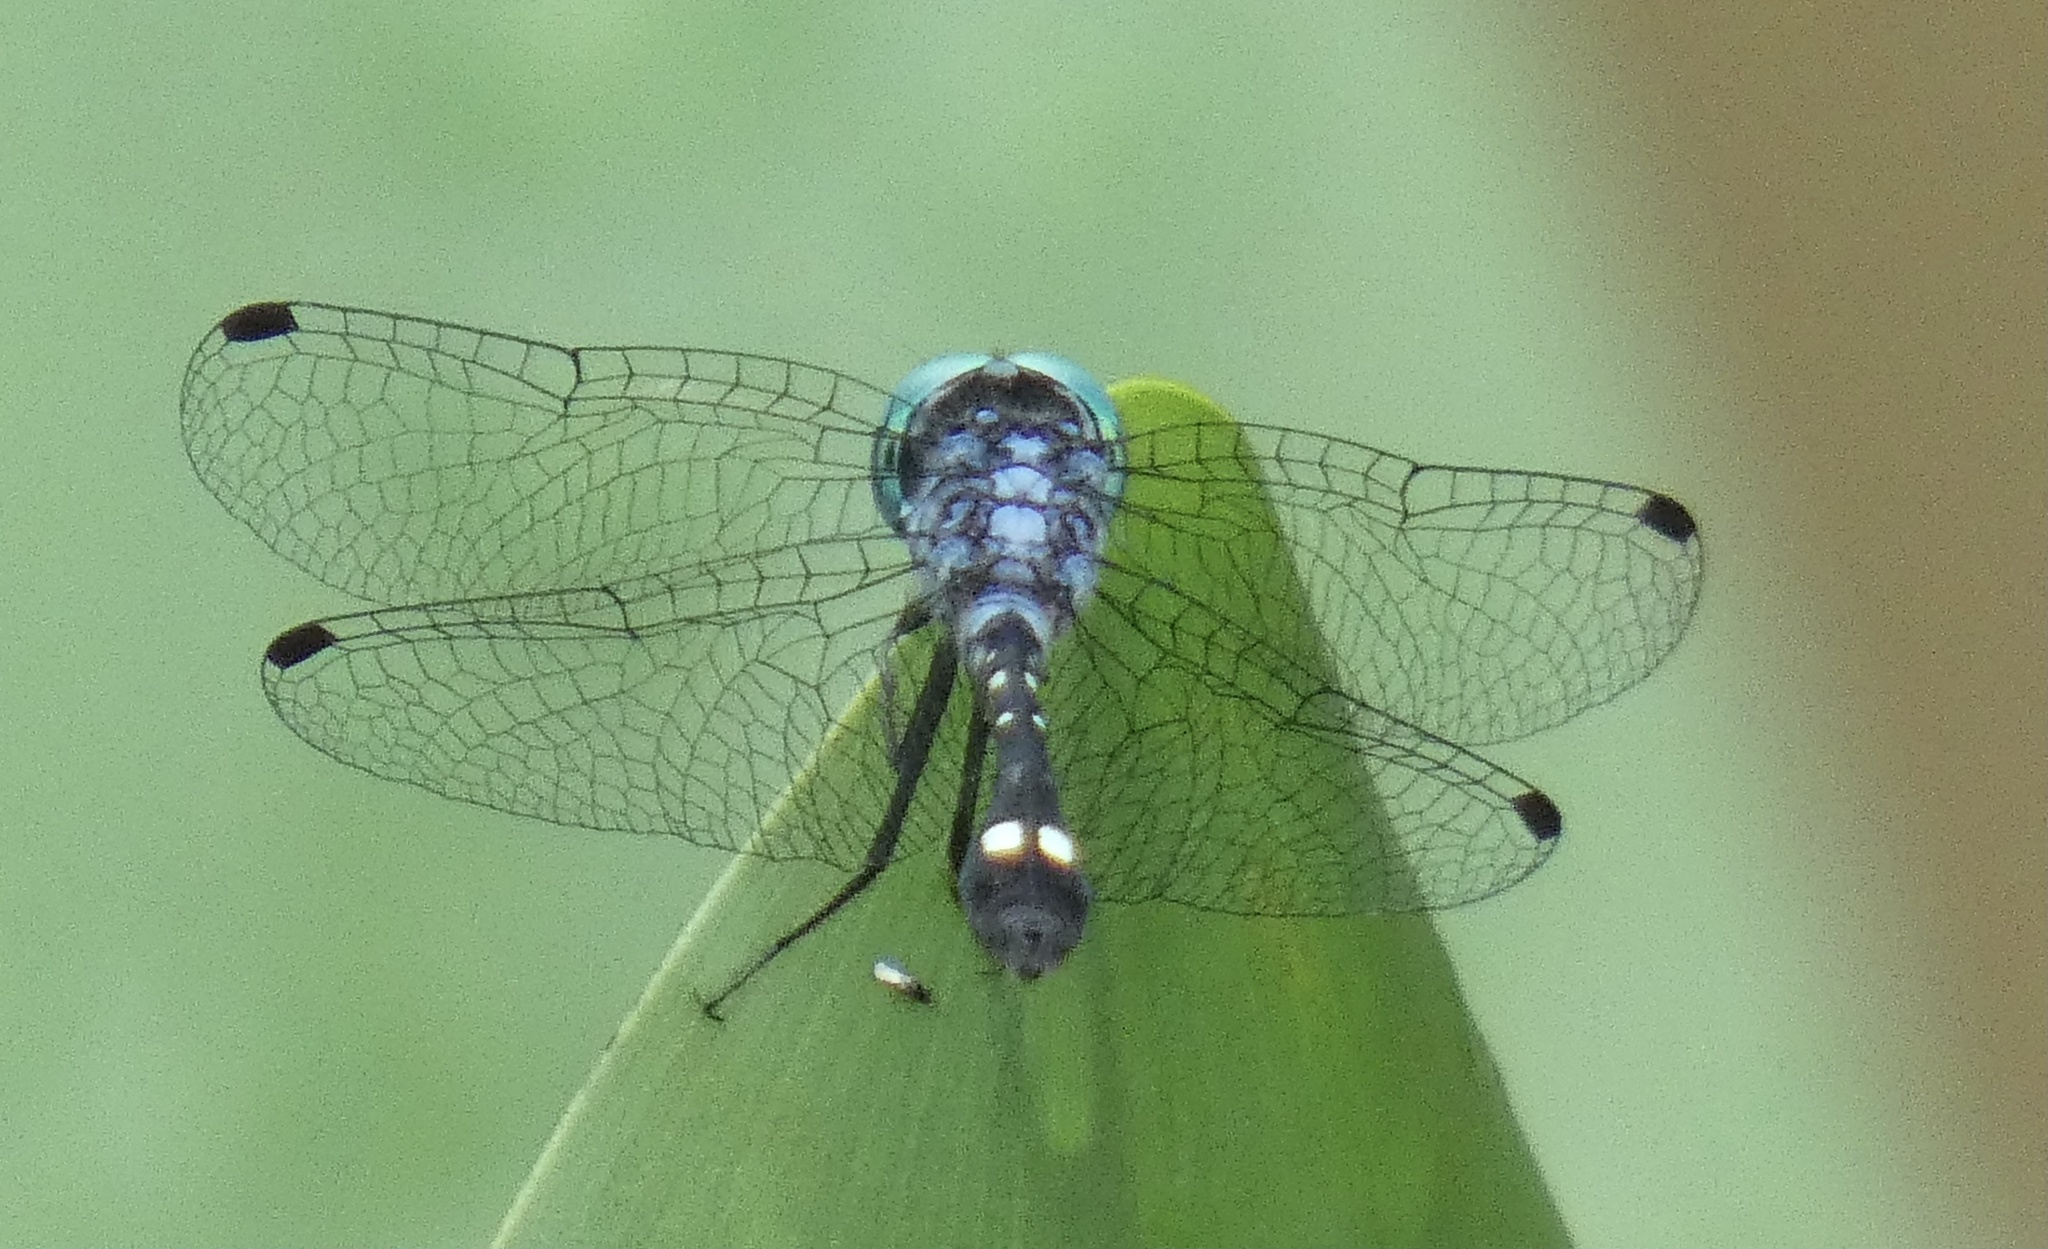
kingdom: Animalia
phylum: Arthropoda
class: Insecta
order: Odonata
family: Libellulidae
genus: Nephepeltia
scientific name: Nephepeltia phryne
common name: Spine-bellied dryad
